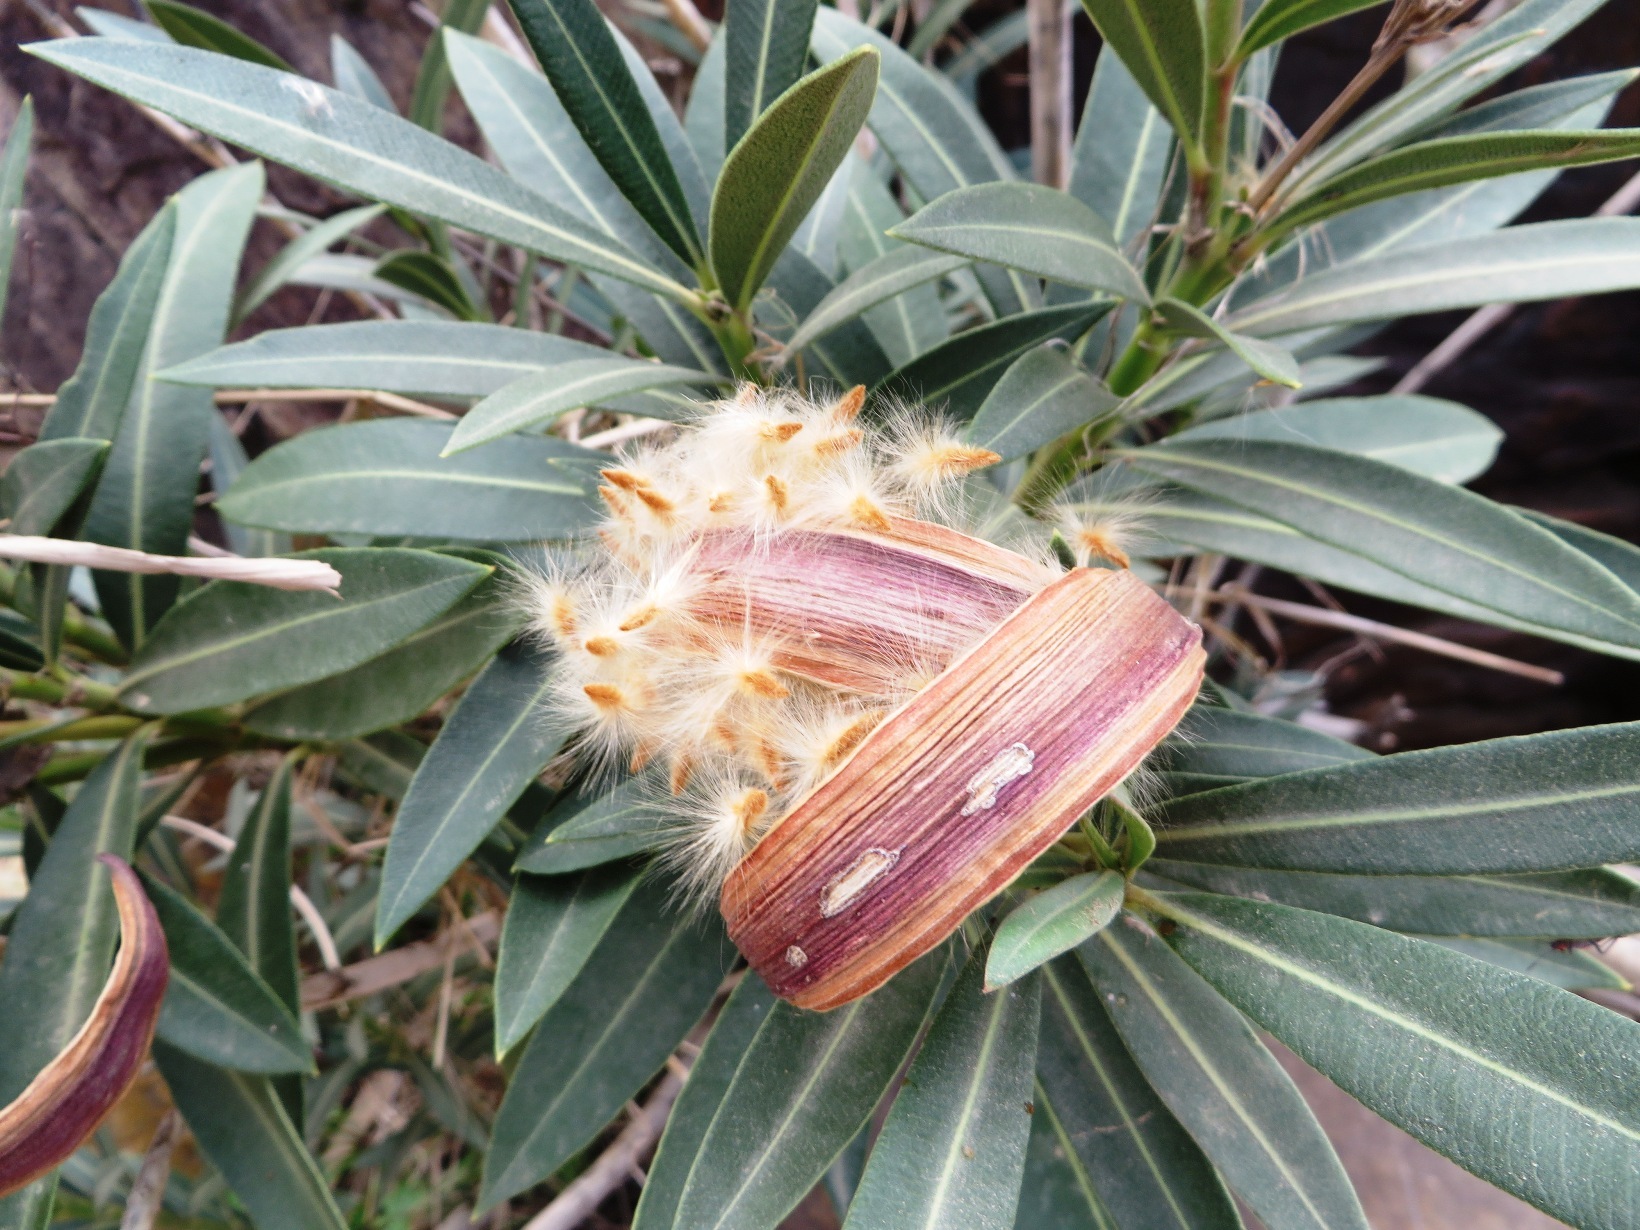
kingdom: Plantae
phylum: Tracheophyta
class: Magnoliopsida
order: Gentianales
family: Apocynaceae
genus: Nerium
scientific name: Nerium oleander
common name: Oleander
